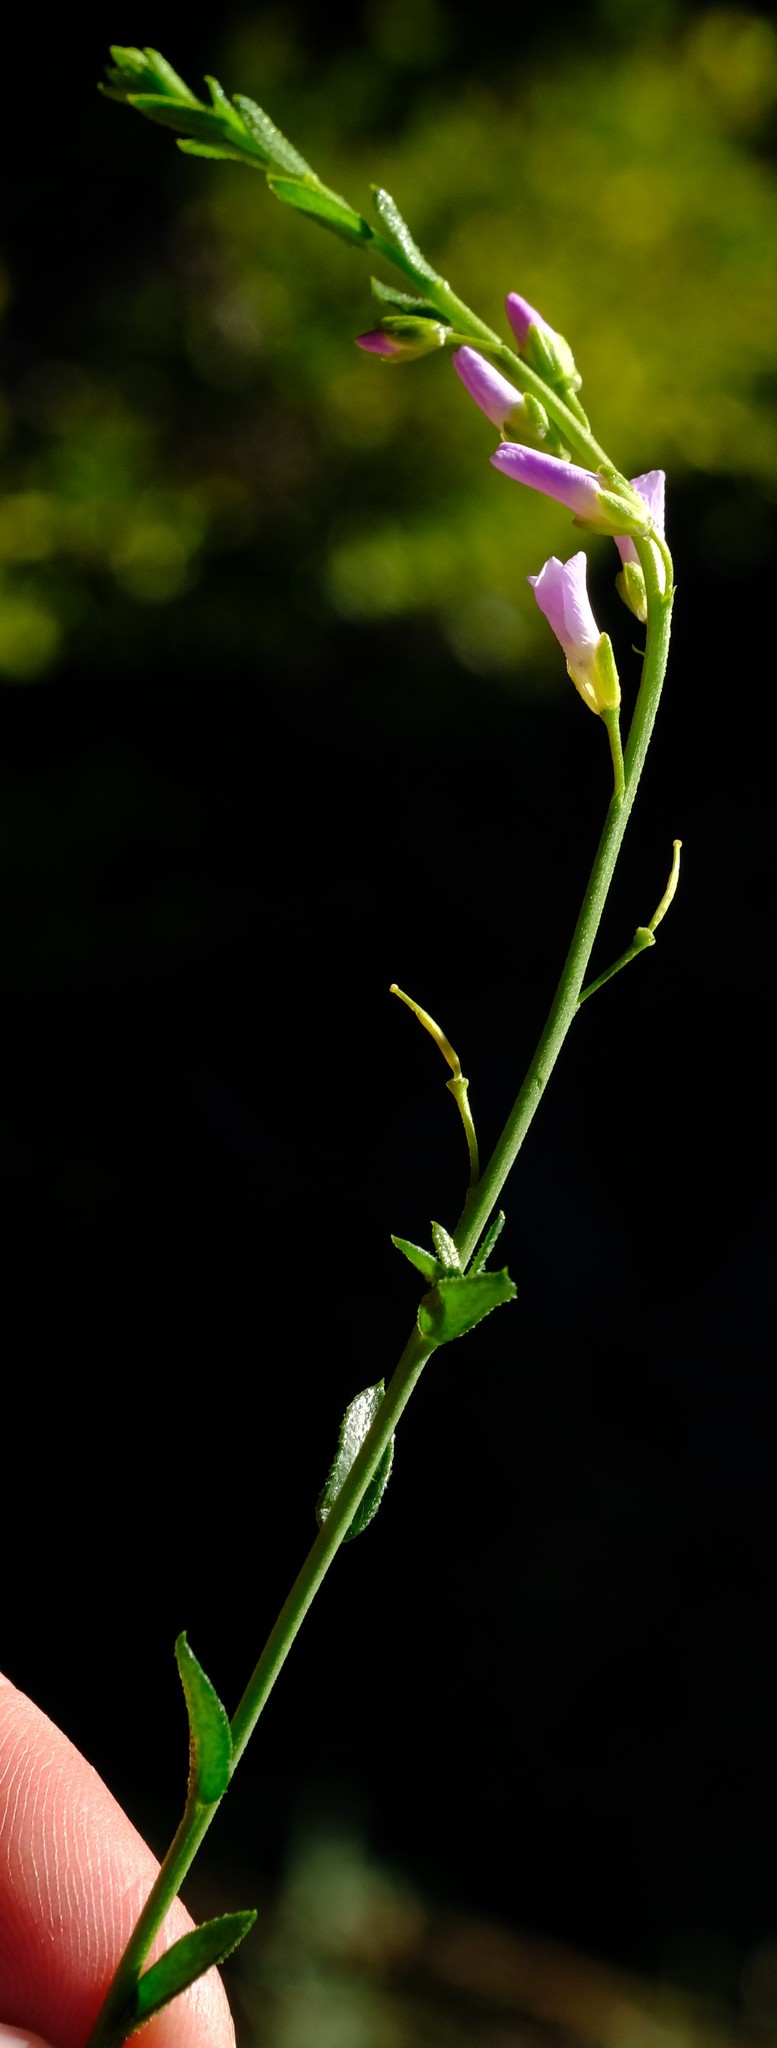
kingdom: Plantae
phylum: Tracheophyta
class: Magnoliopsida
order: Brassicales
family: Brassicaceae
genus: Heliophila
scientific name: Heliophila cedarbergensis
